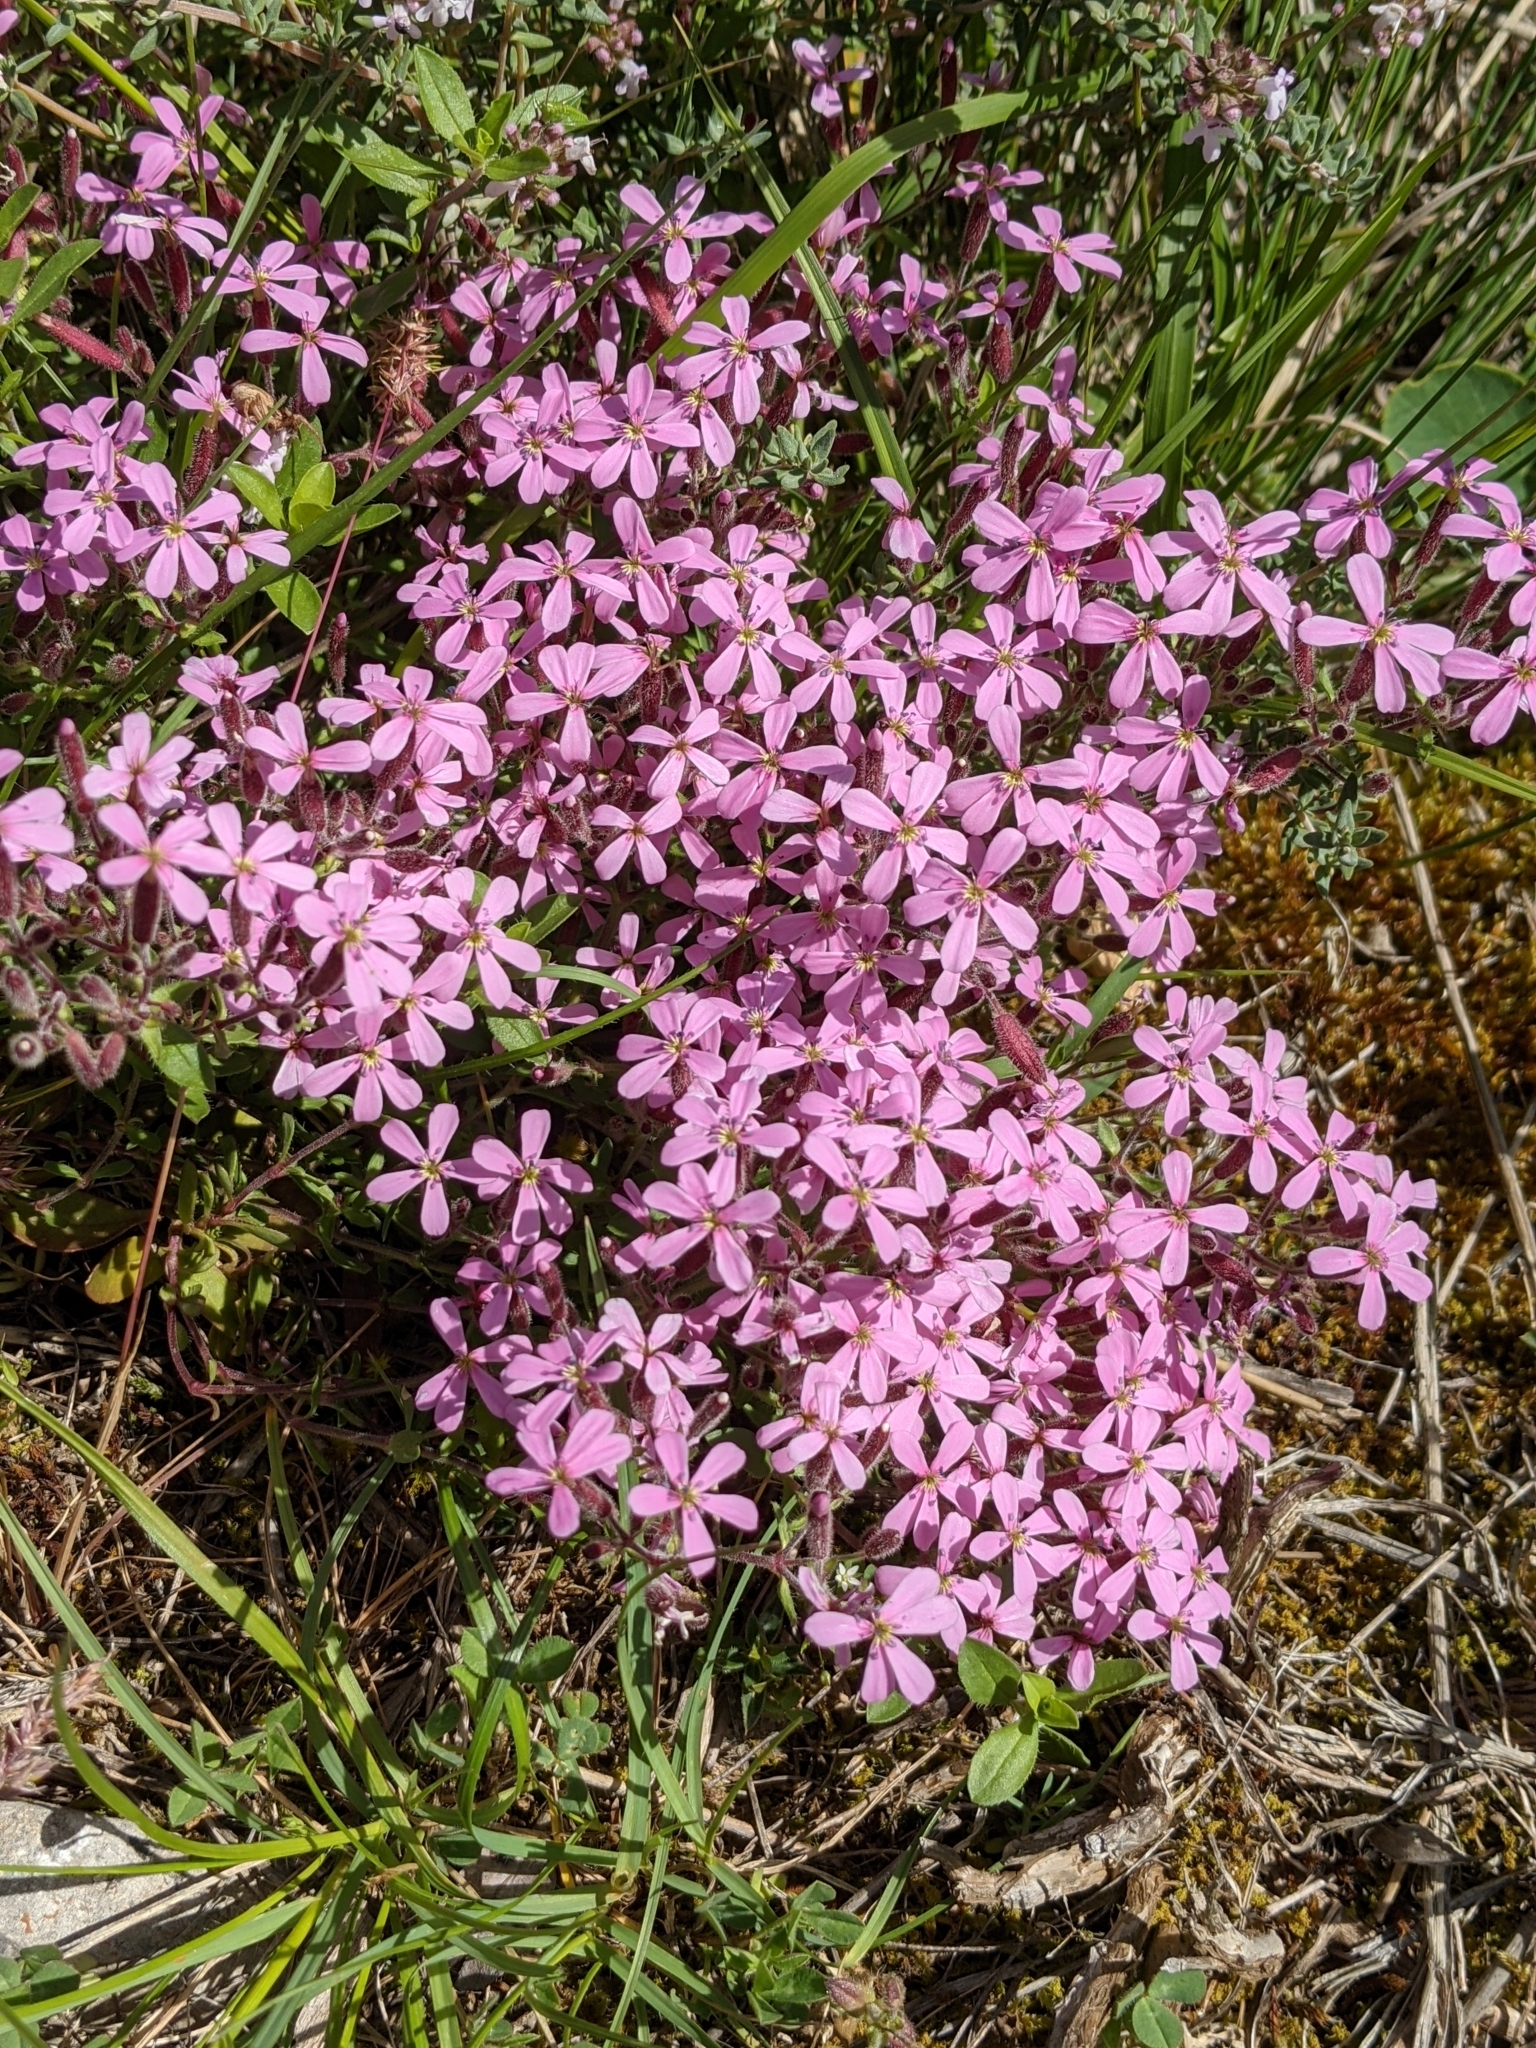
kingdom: Plantae
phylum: Tracheophyta
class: Magnoliopsida
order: Caryophyllales
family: Caryophyllaceae
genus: Saponaria
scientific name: Saponaria ocymoides
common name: Rock soapwort
